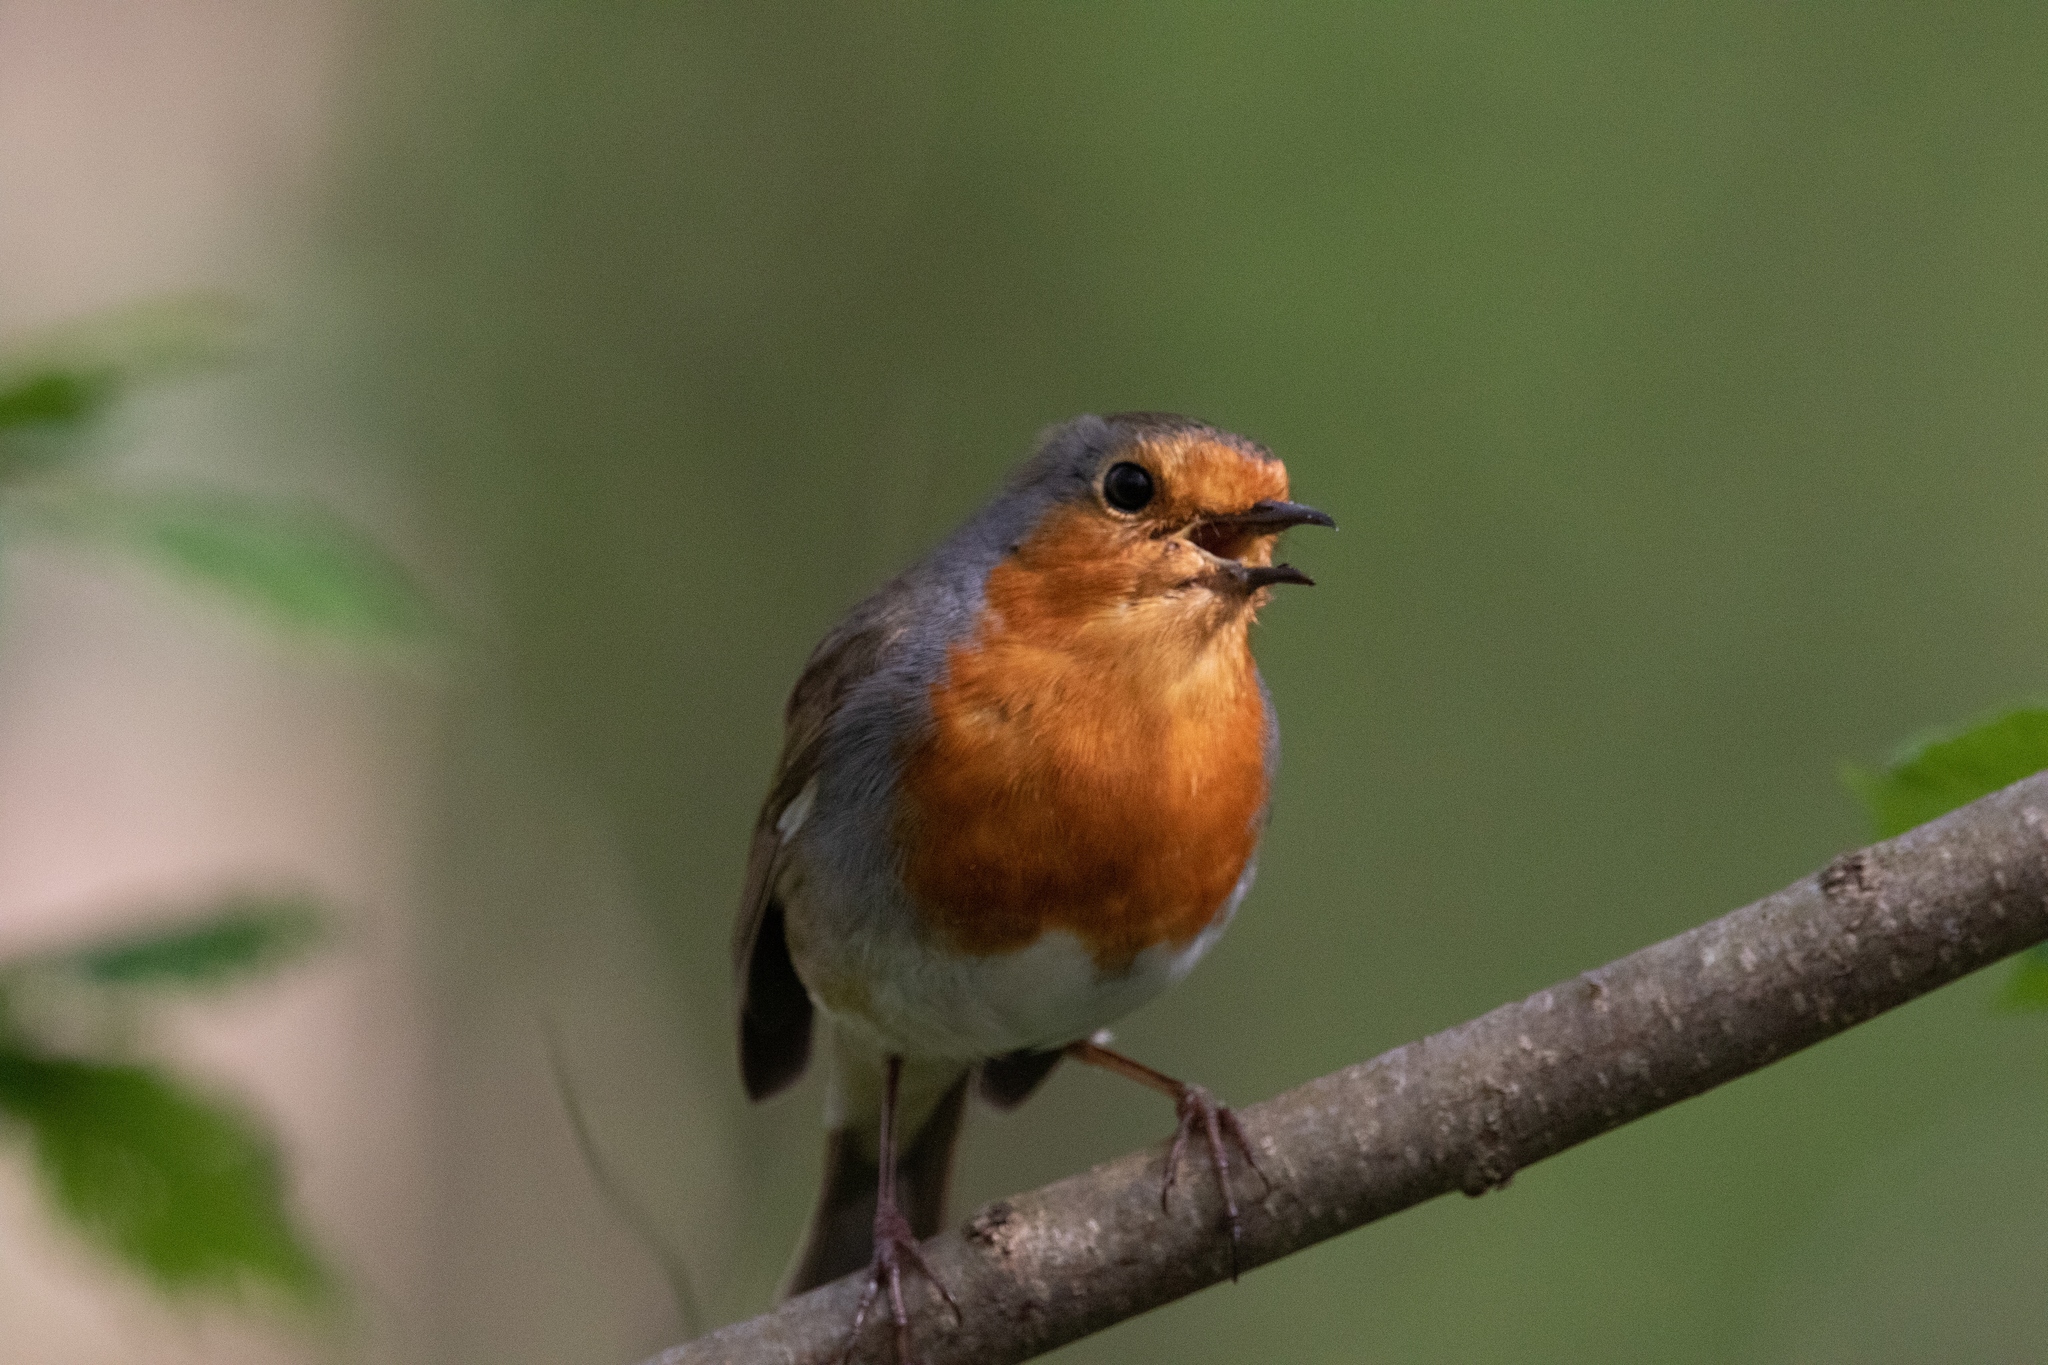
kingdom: Animalia
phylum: Chordata
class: Aves
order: Passeriformes
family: Muscicapidae
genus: Erithacus
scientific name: Erithacus rubecula
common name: European robin
